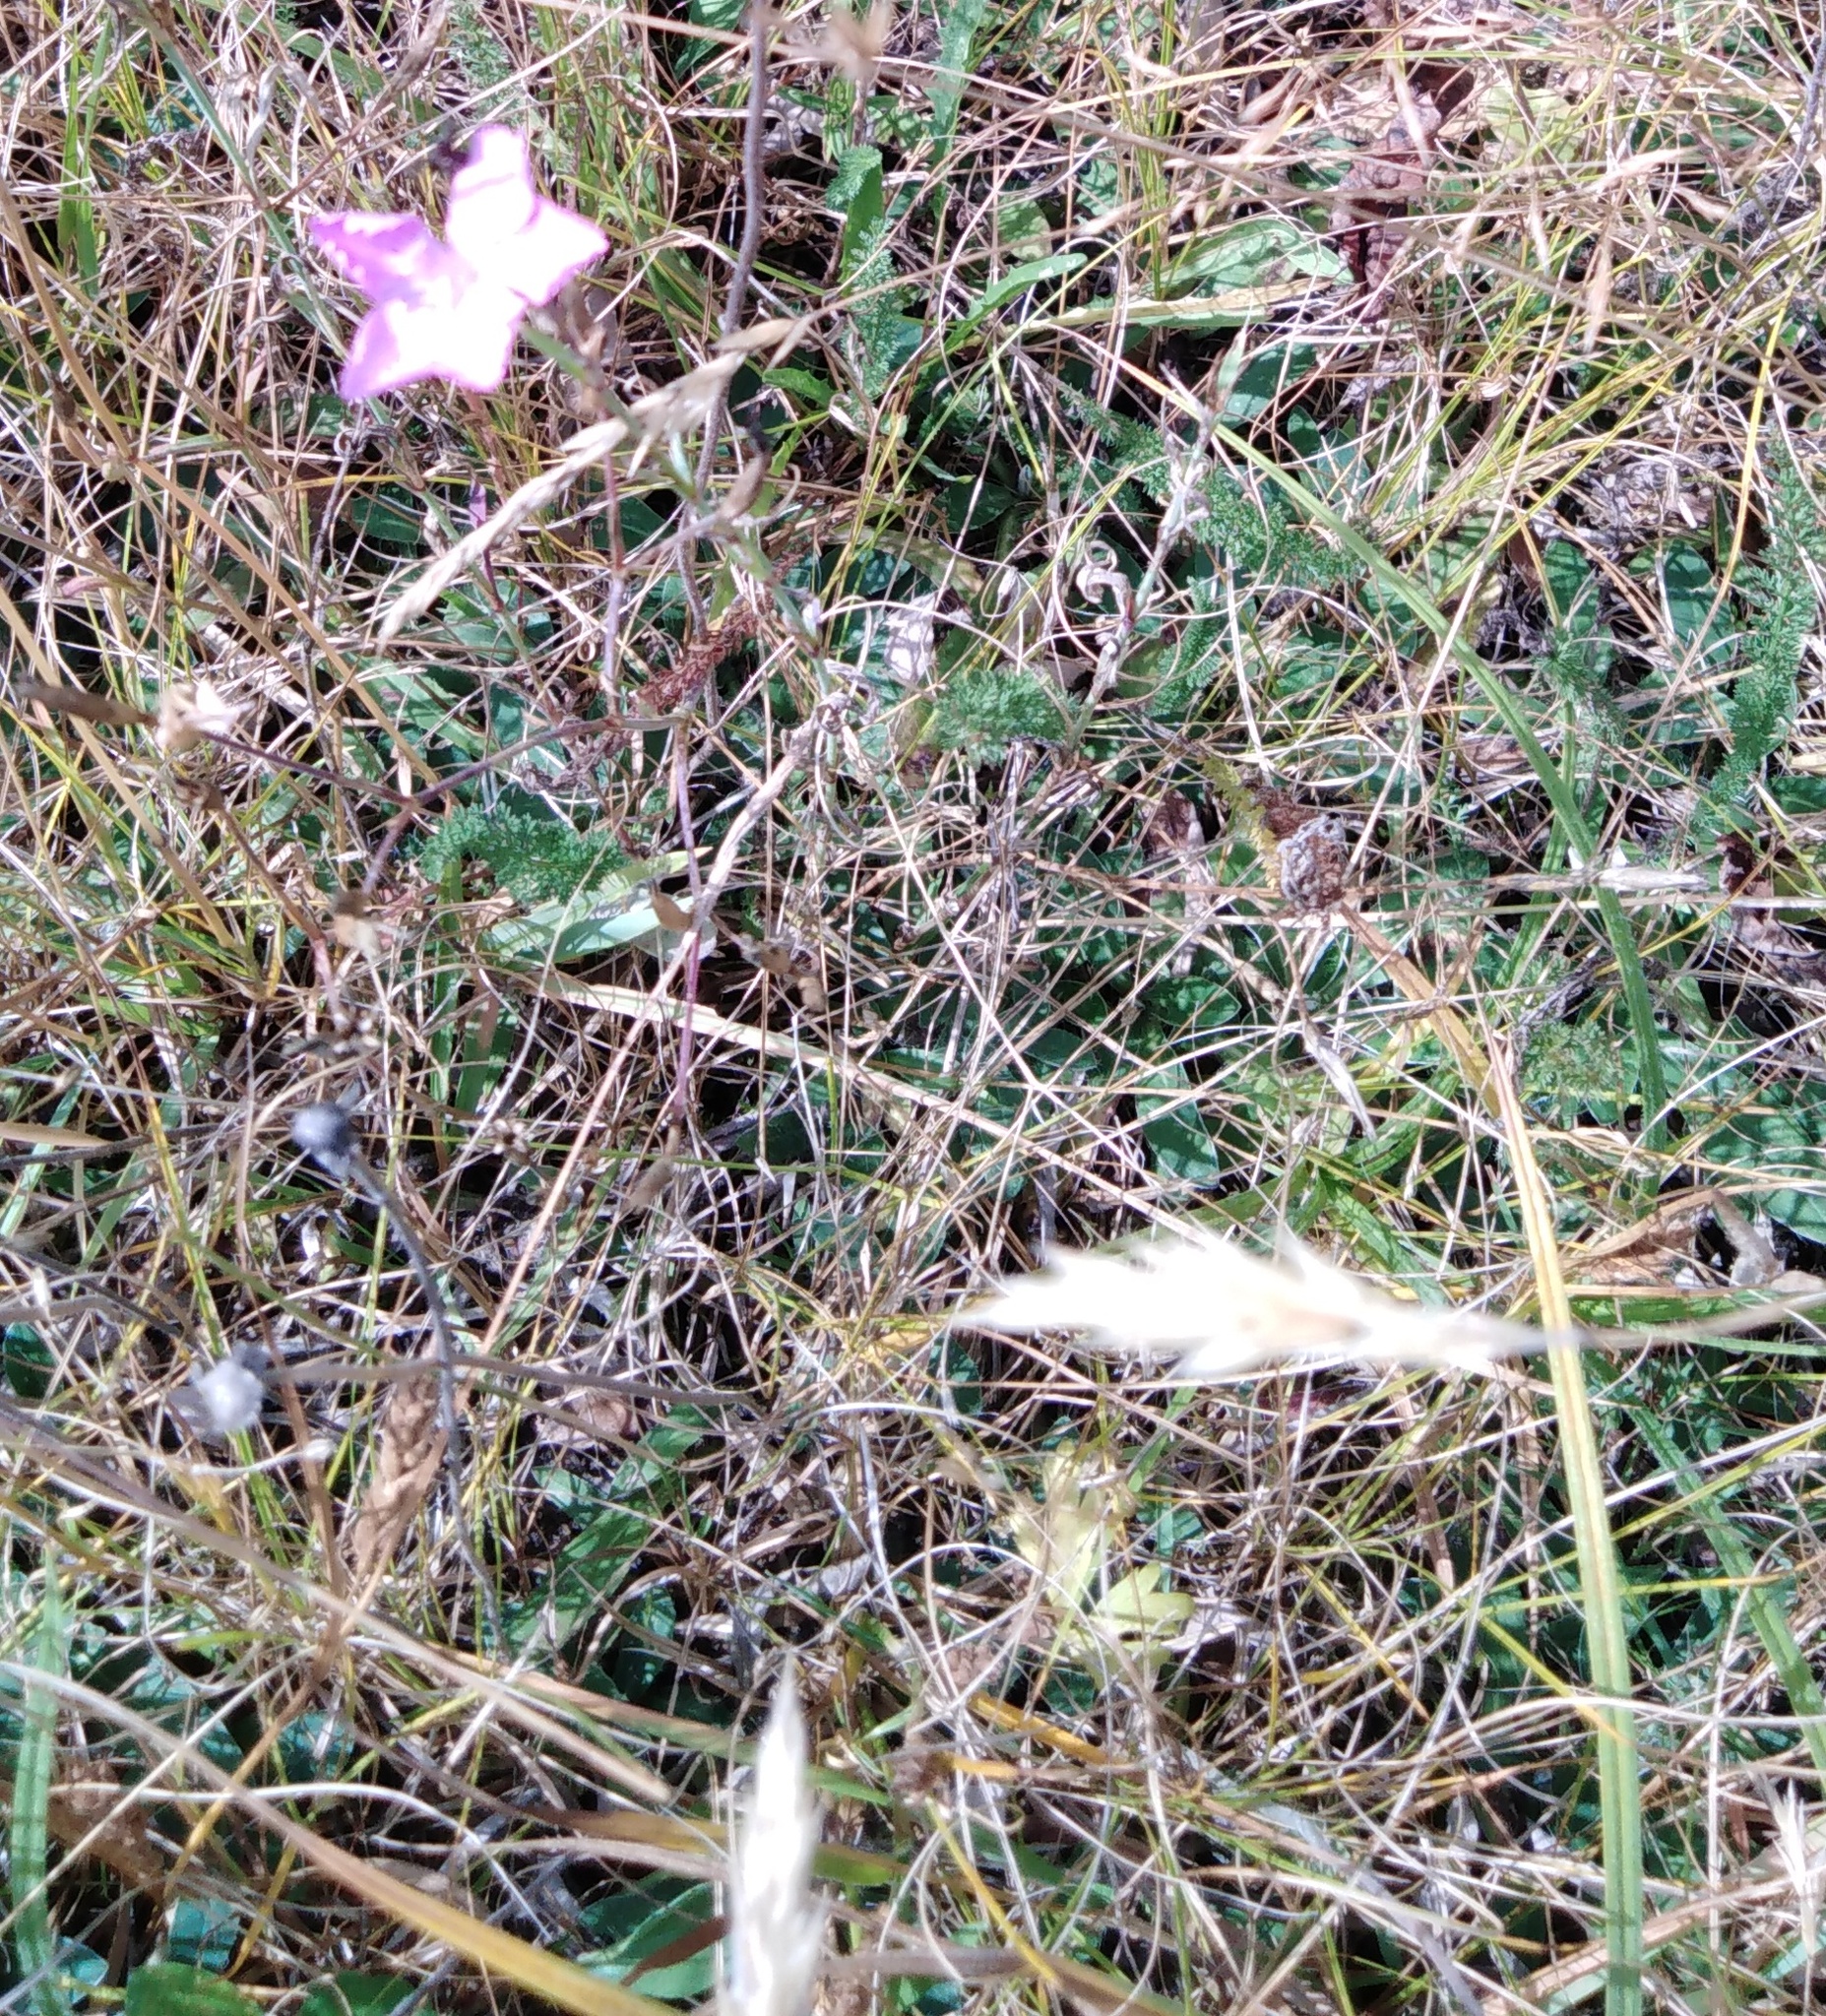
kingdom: Plantae
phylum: Tracheophyta
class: Magnoliopsida
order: Caryophyllales
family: Caryophyllaceae
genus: Dianthus
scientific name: Dianthus chinensis
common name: Rainbow pink
